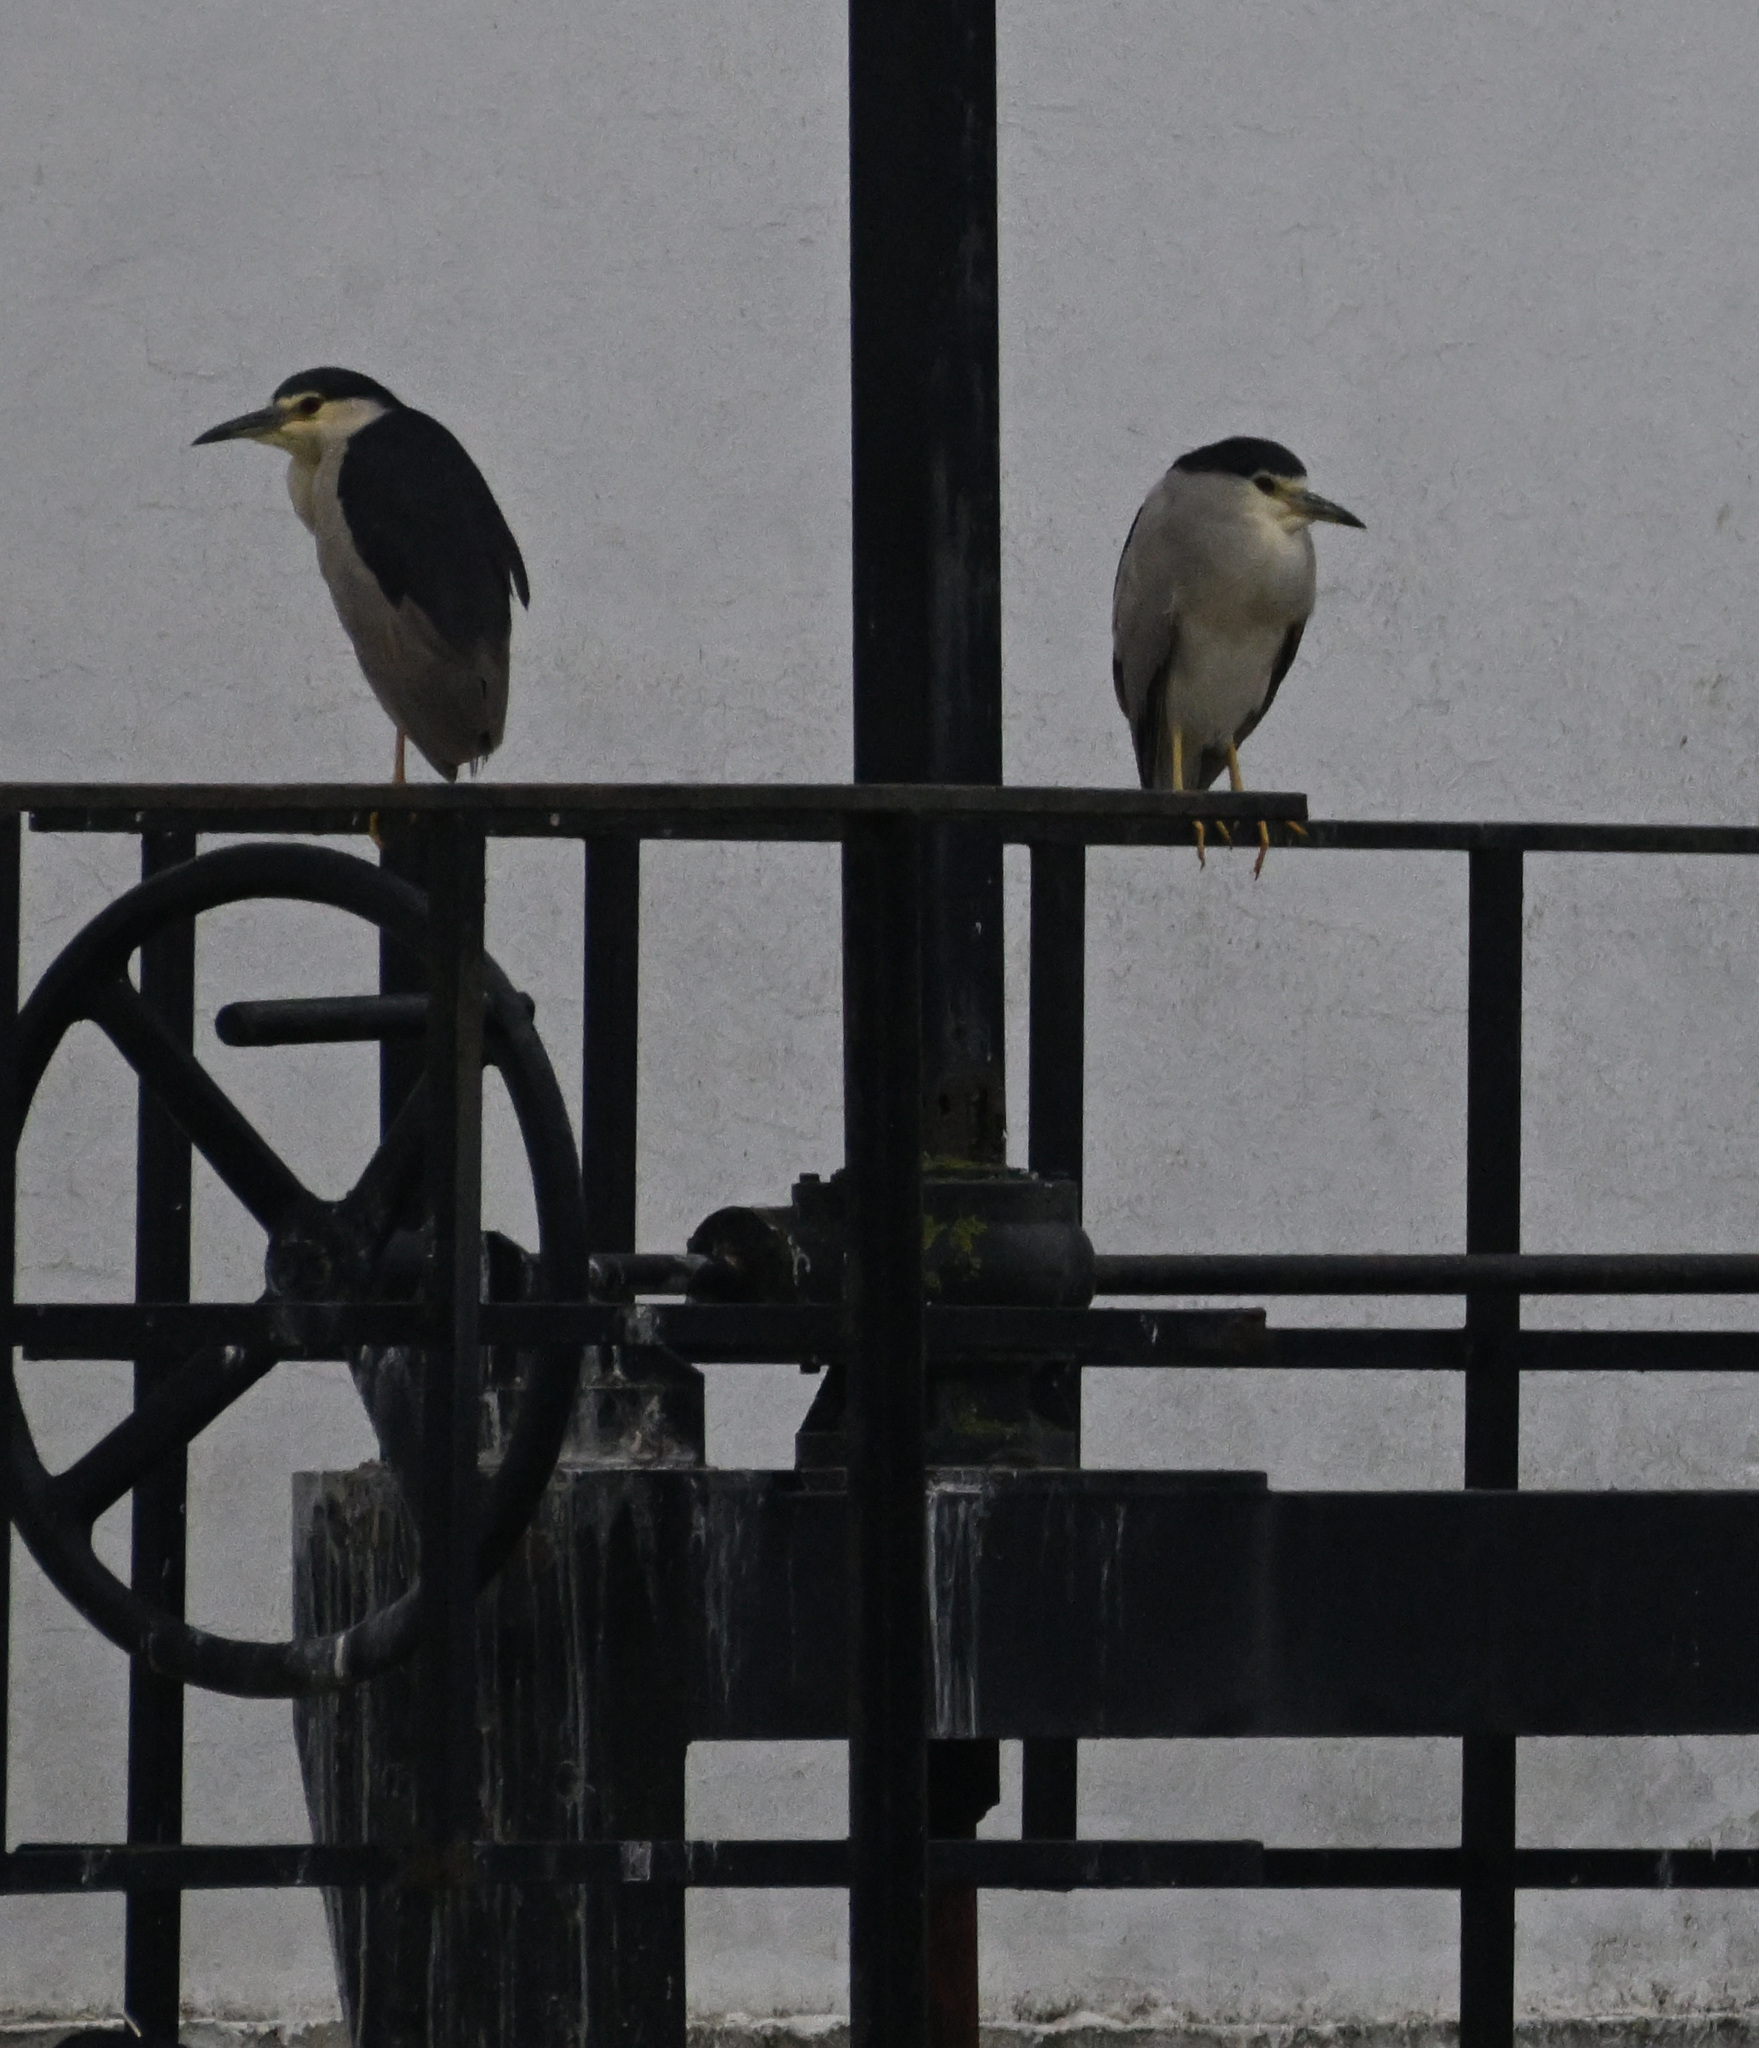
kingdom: Animalia
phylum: Chordata
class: Aves
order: Pelecaniformes
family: Ardeidae
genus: Nycticorax
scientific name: Nycticorax nycticorax
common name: Black-crowned night heron
